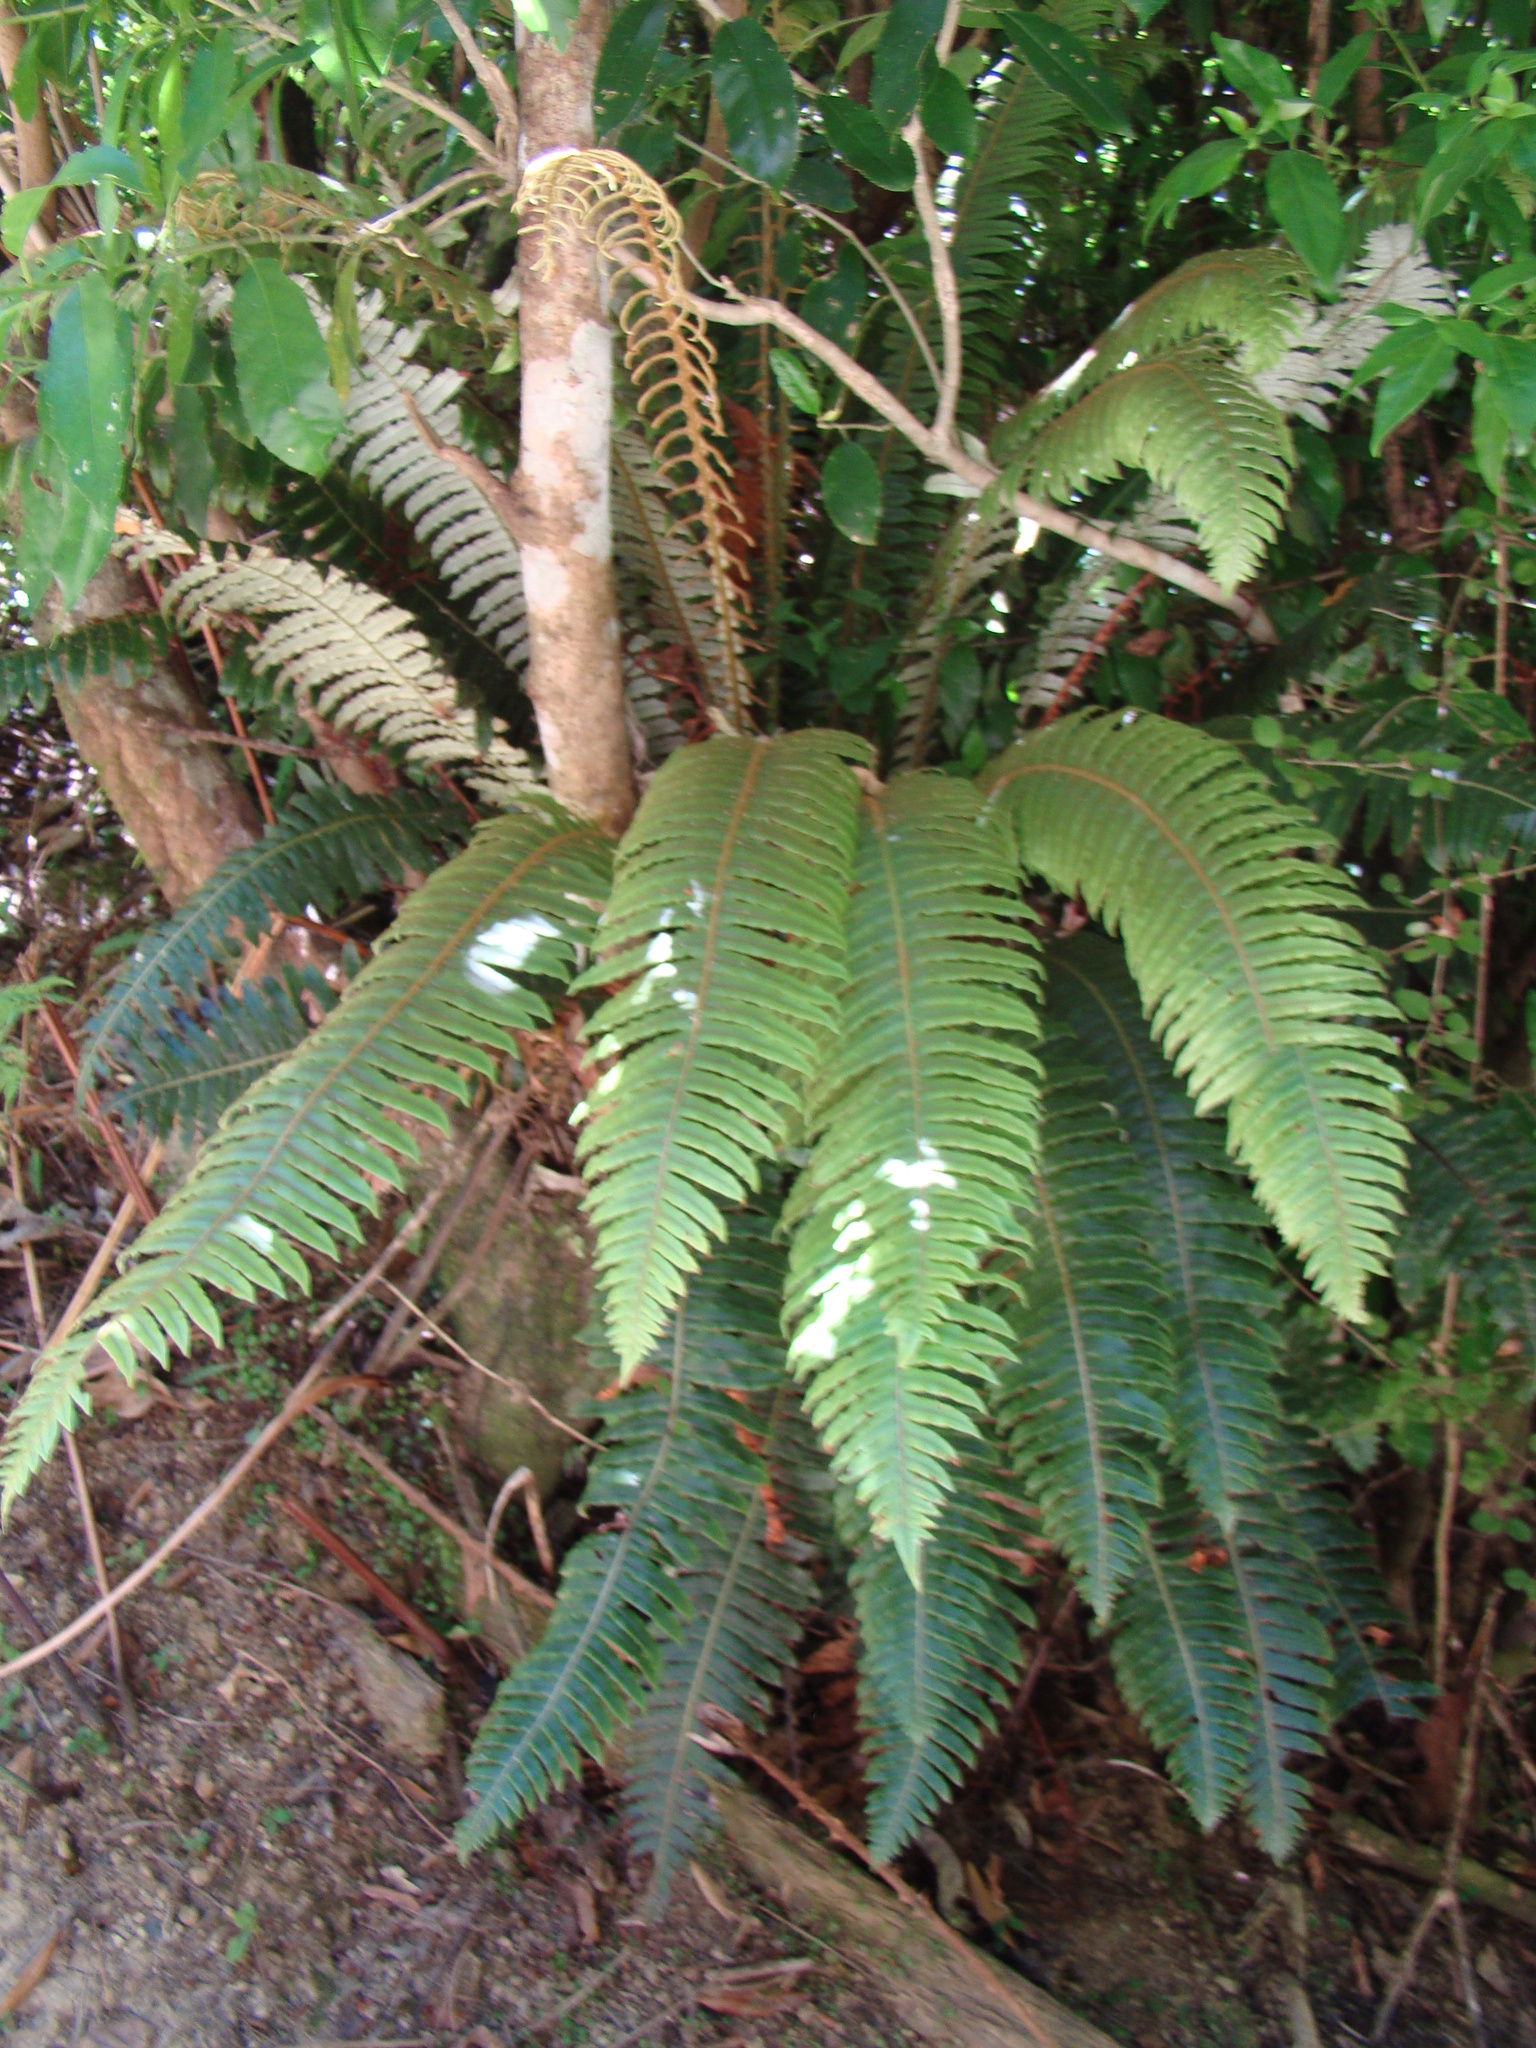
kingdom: Plantae
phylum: Tracheophyta
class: Polypodiopsida
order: Polypodiales
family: Blechnaceae
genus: Lomaria
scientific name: Lomaria discolor
